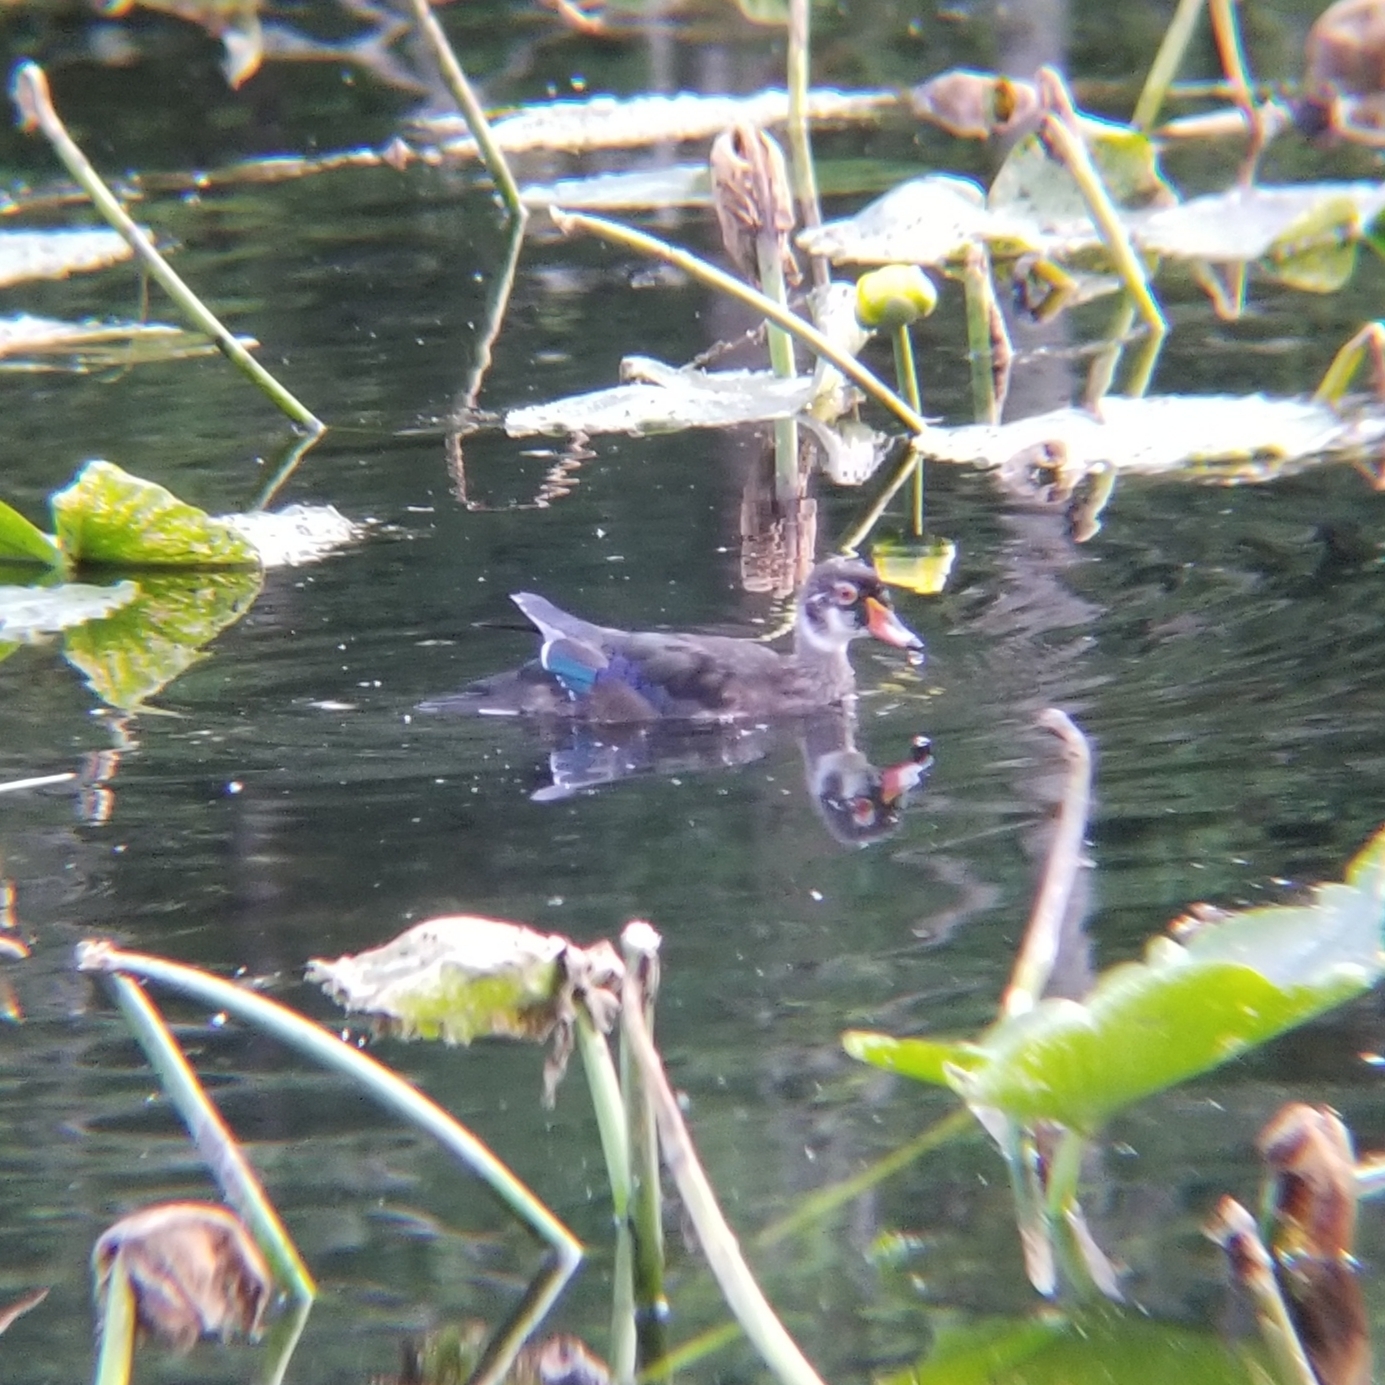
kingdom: Animalia
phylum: Chordata
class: Aves
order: Anseriformes
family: Anatidae
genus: Aix
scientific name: Aix sponsa
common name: Wood duck
